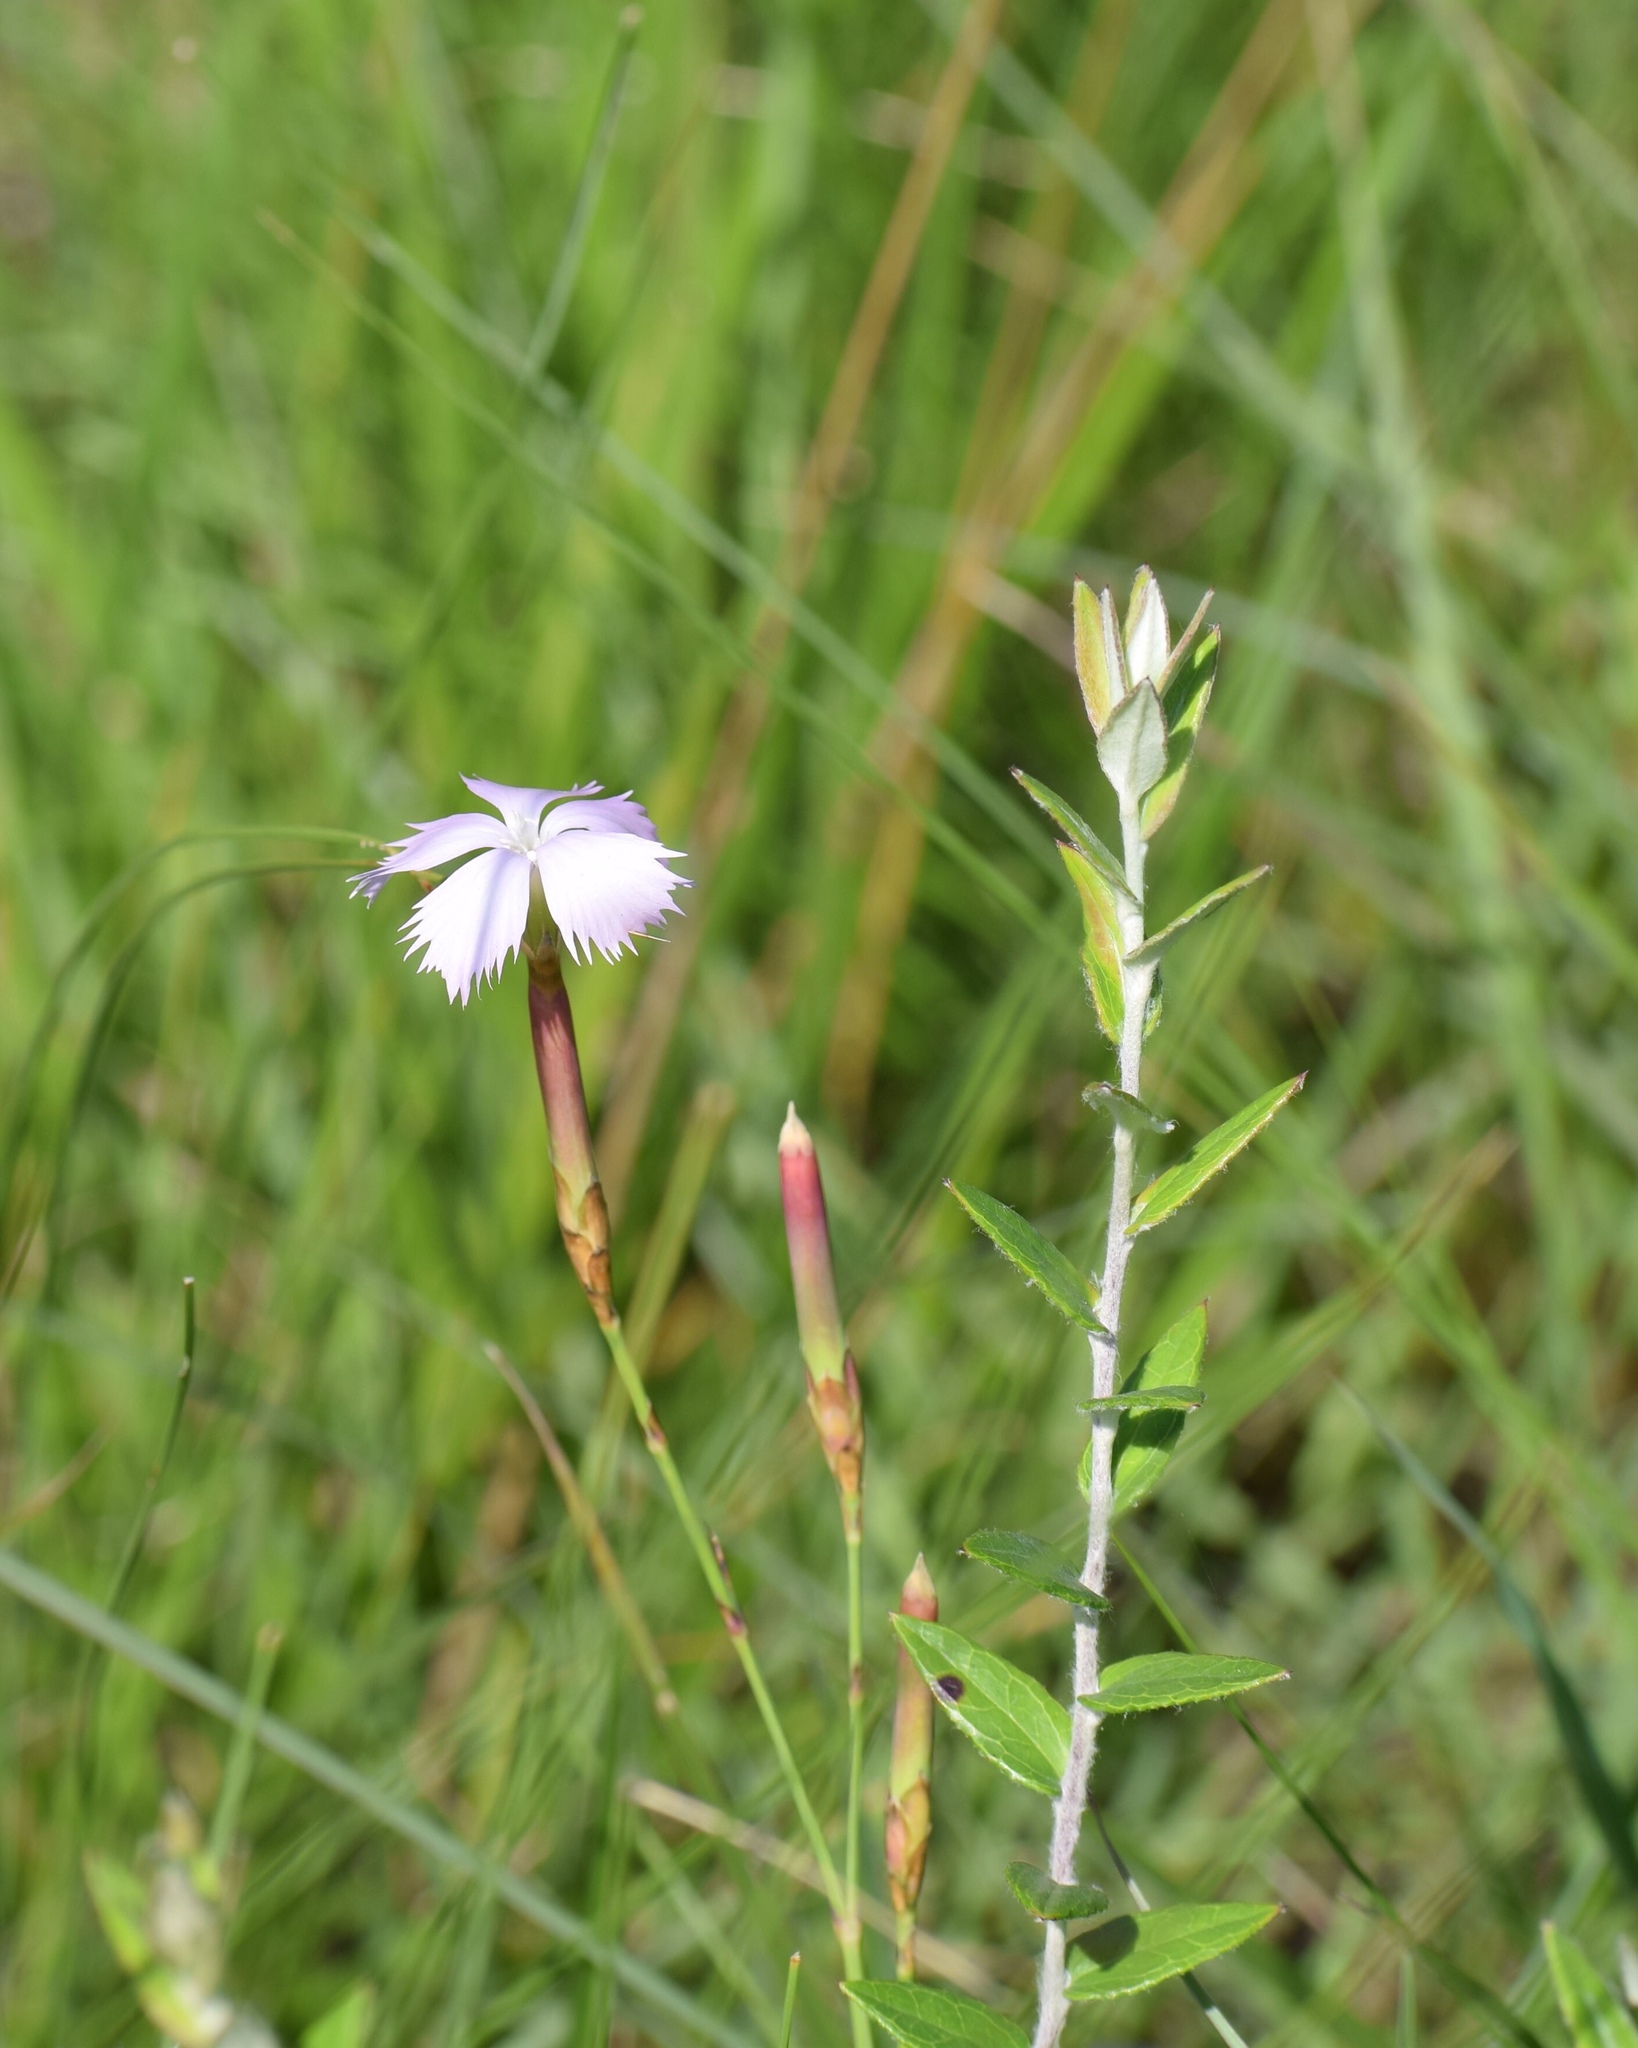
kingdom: Plantae
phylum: Tracheophyta
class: Magnoliopsida
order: Caryophyllales
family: Caryophyllaceae
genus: Dianthus
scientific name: Dianthus zeyheri
